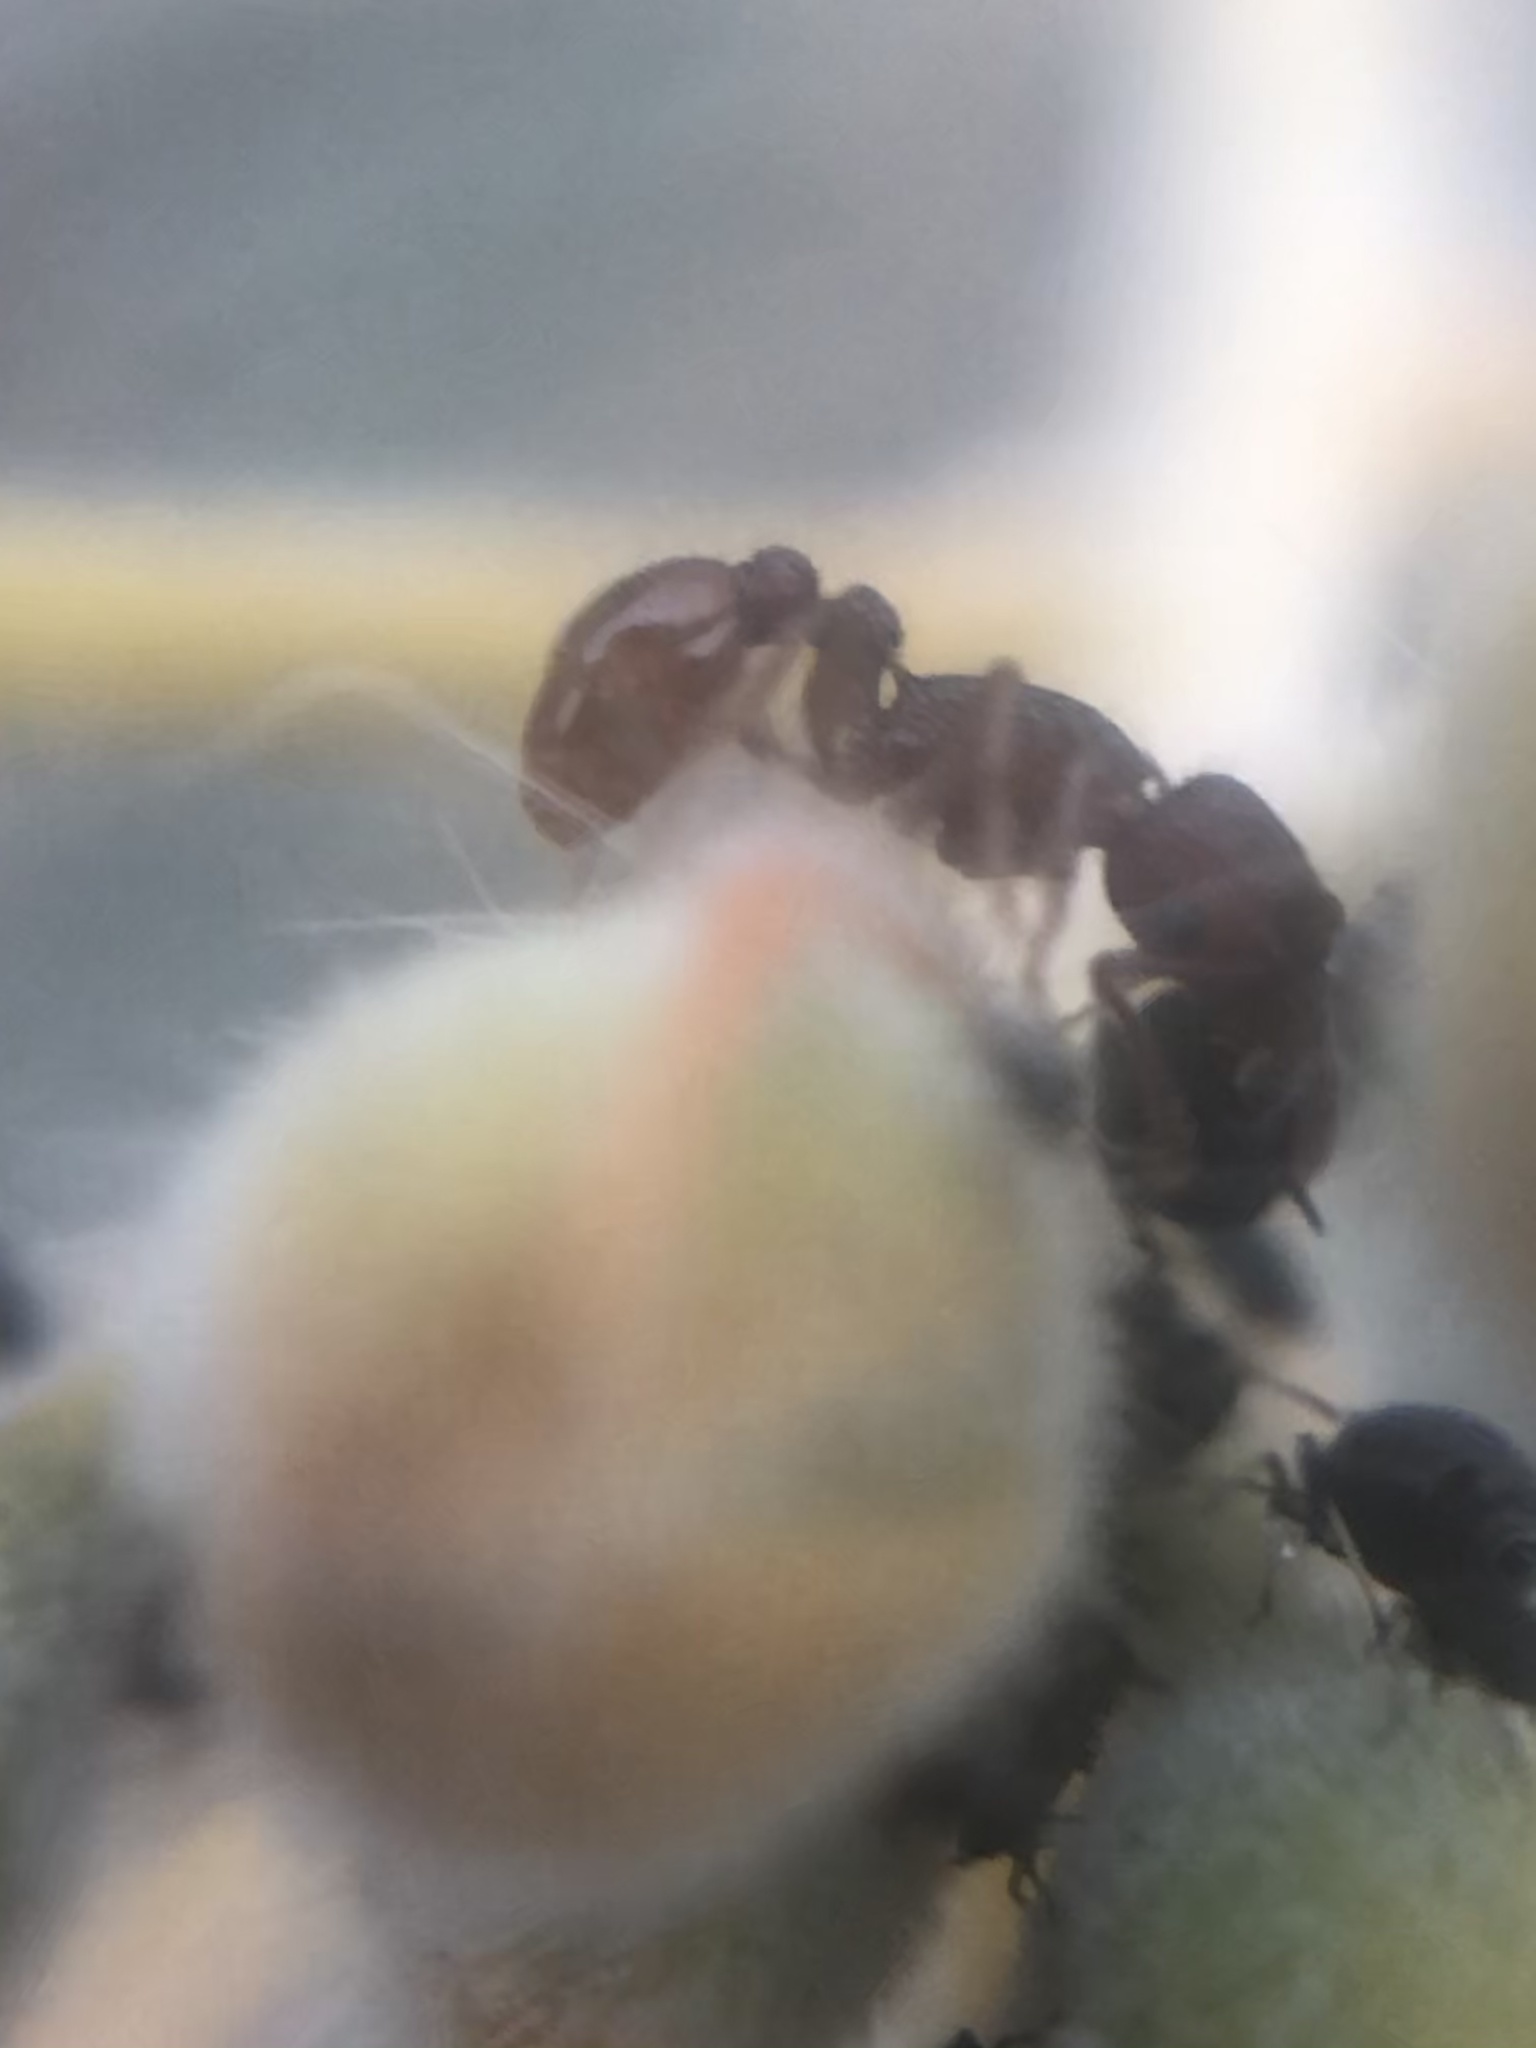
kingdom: Animalia
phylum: Arthropoda
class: Insecta
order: Hymenoptera
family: Formicidae
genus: Tetramorium
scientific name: Tetramorium hispidum
